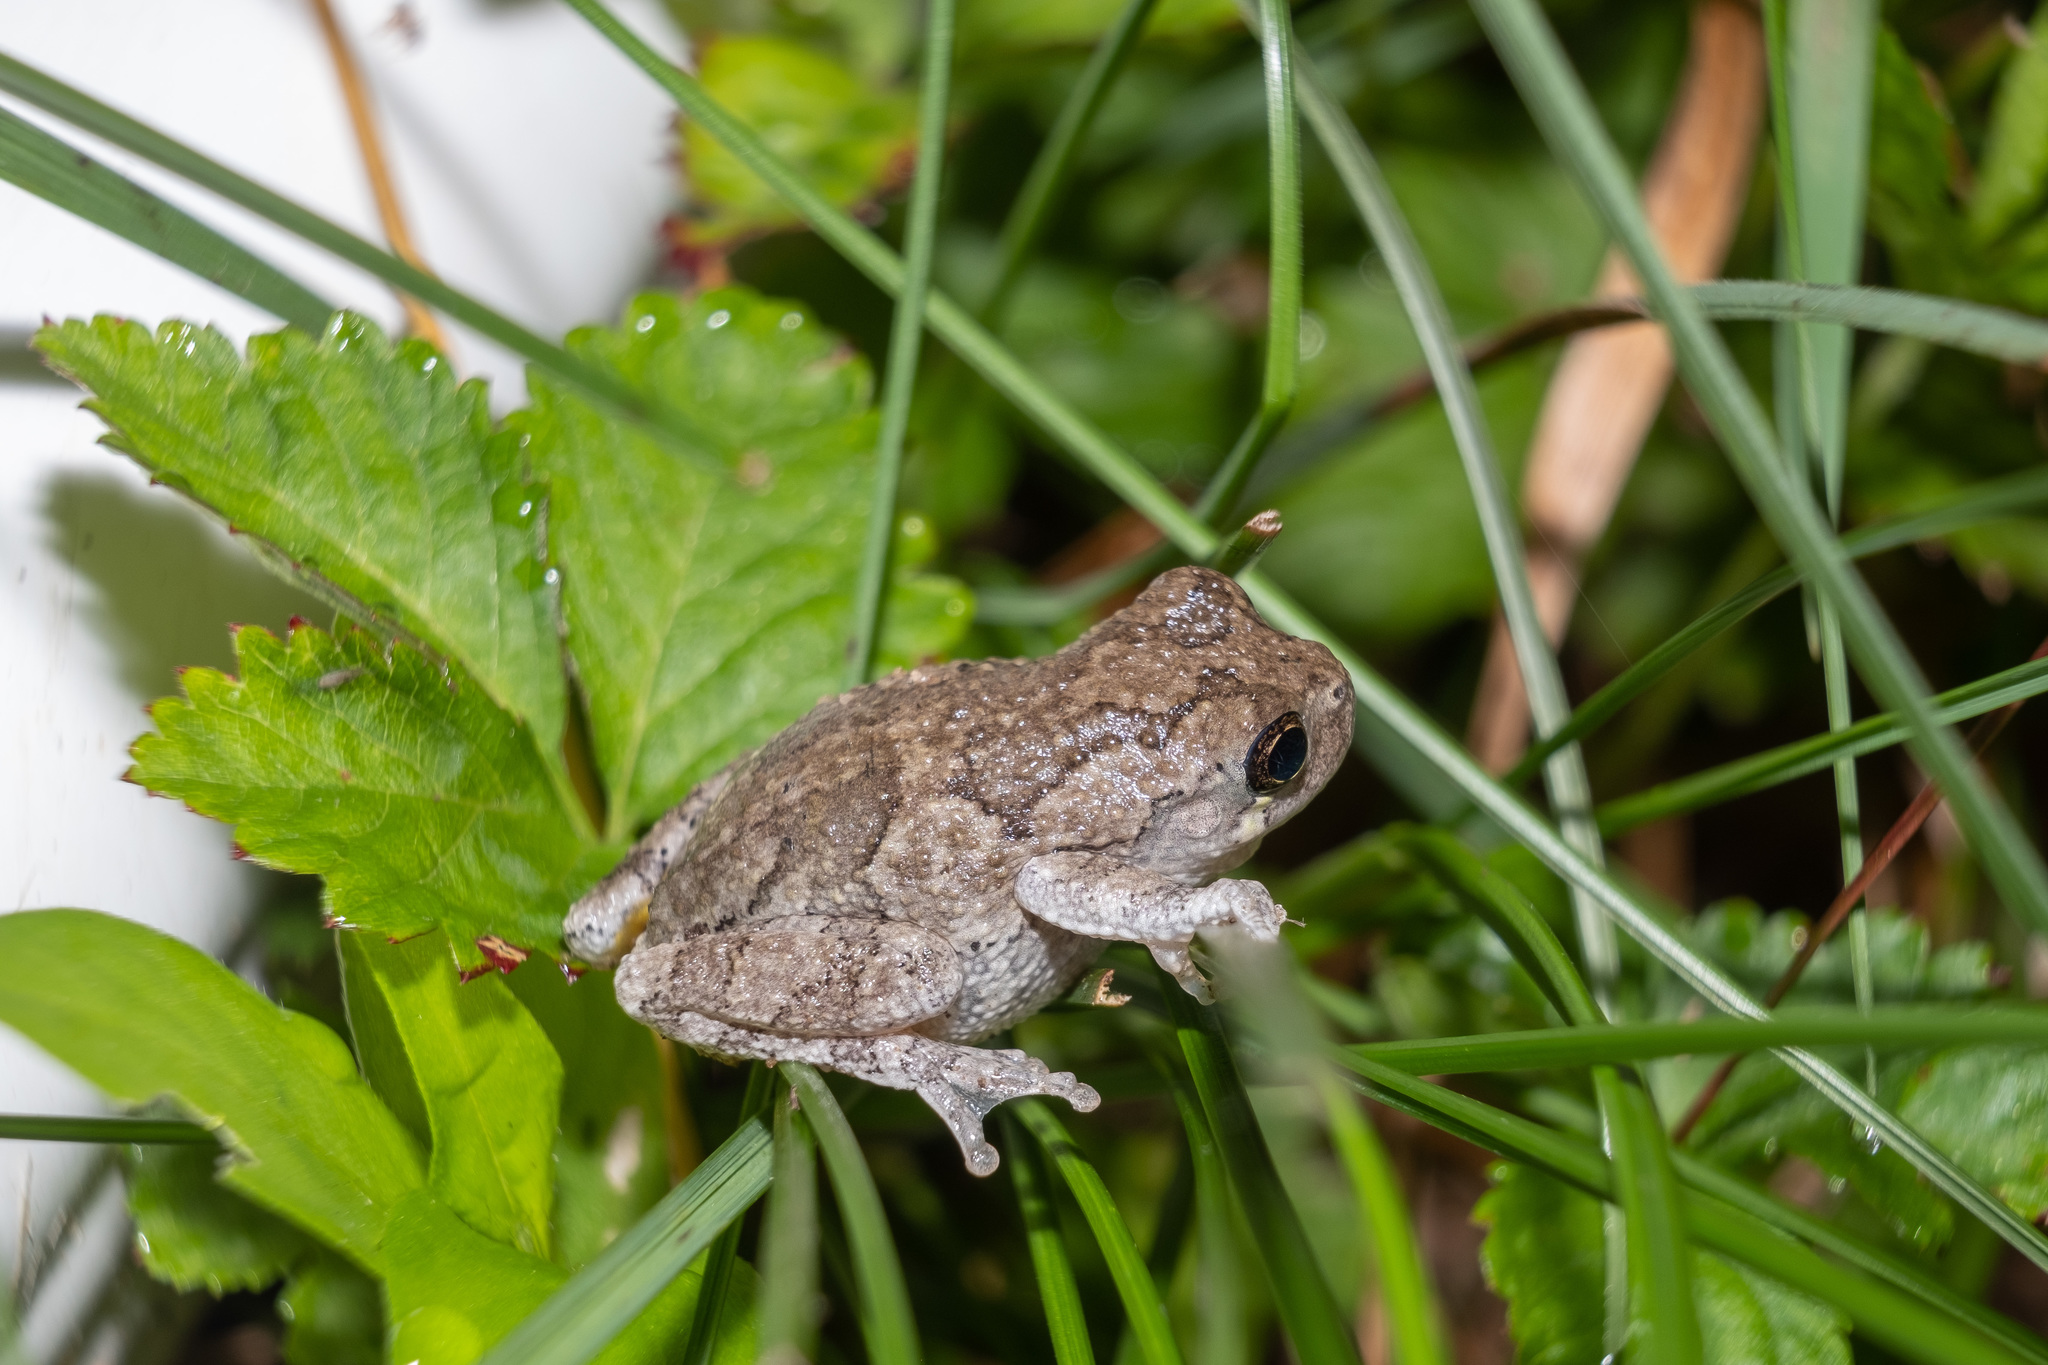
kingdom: Animalia
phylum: Chordata
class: Amphibia
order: Anura
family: Hylidae
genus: Dryophytes
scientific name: Dryophytes versicolor
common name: Gray treefrog
